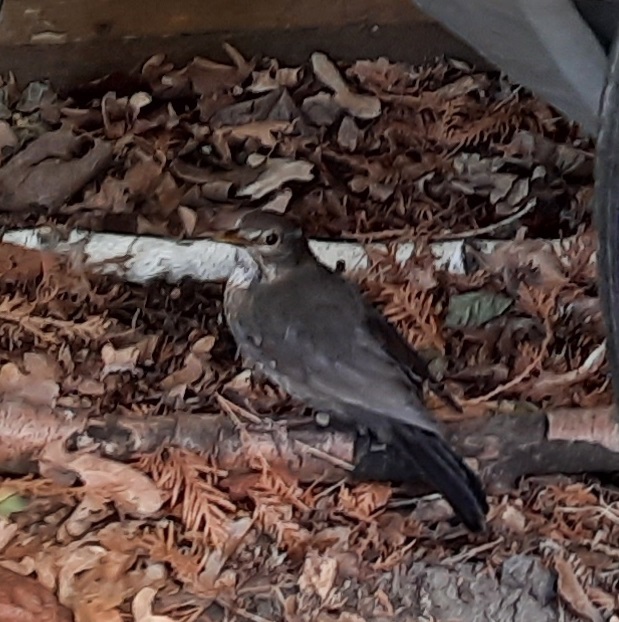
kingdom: Animalia
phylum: Chordata
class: Aves
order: Passeriformes
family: Turdidae
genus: Turdus
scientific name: Turdus merula
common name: Common blackbird
